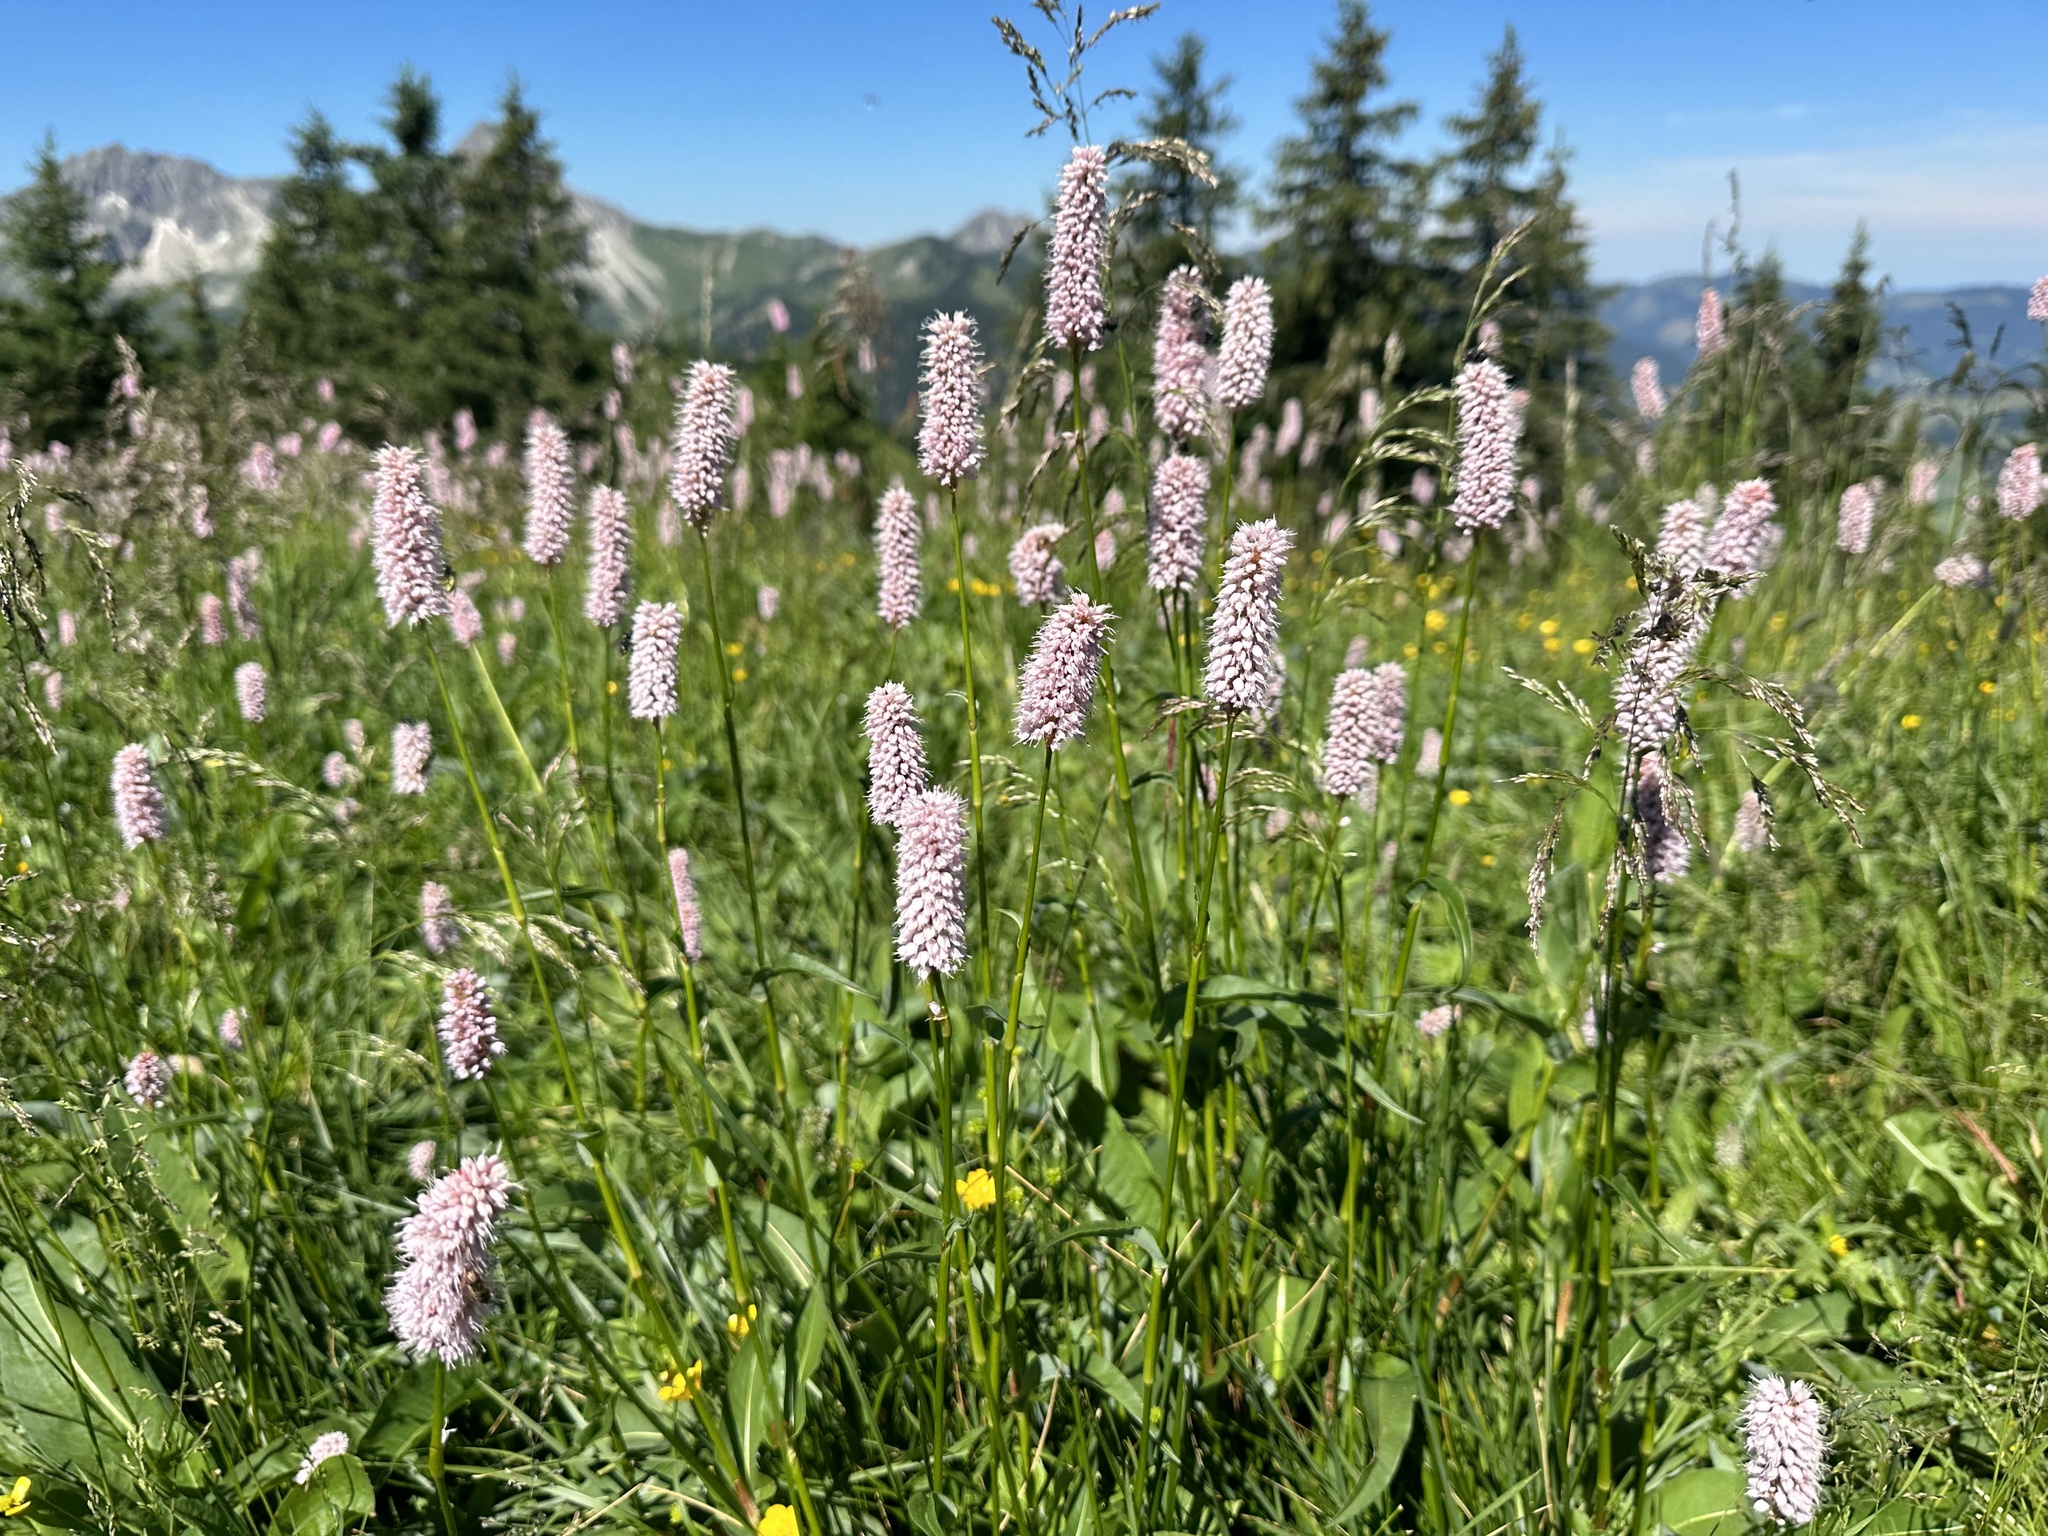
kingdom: Plantae
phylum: Tracheophyta
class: Magnoliopsida
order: Caryophyllales
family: Polygonaceae
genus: Bistorta
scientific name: Bistorta officinalis
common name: Common bistort
